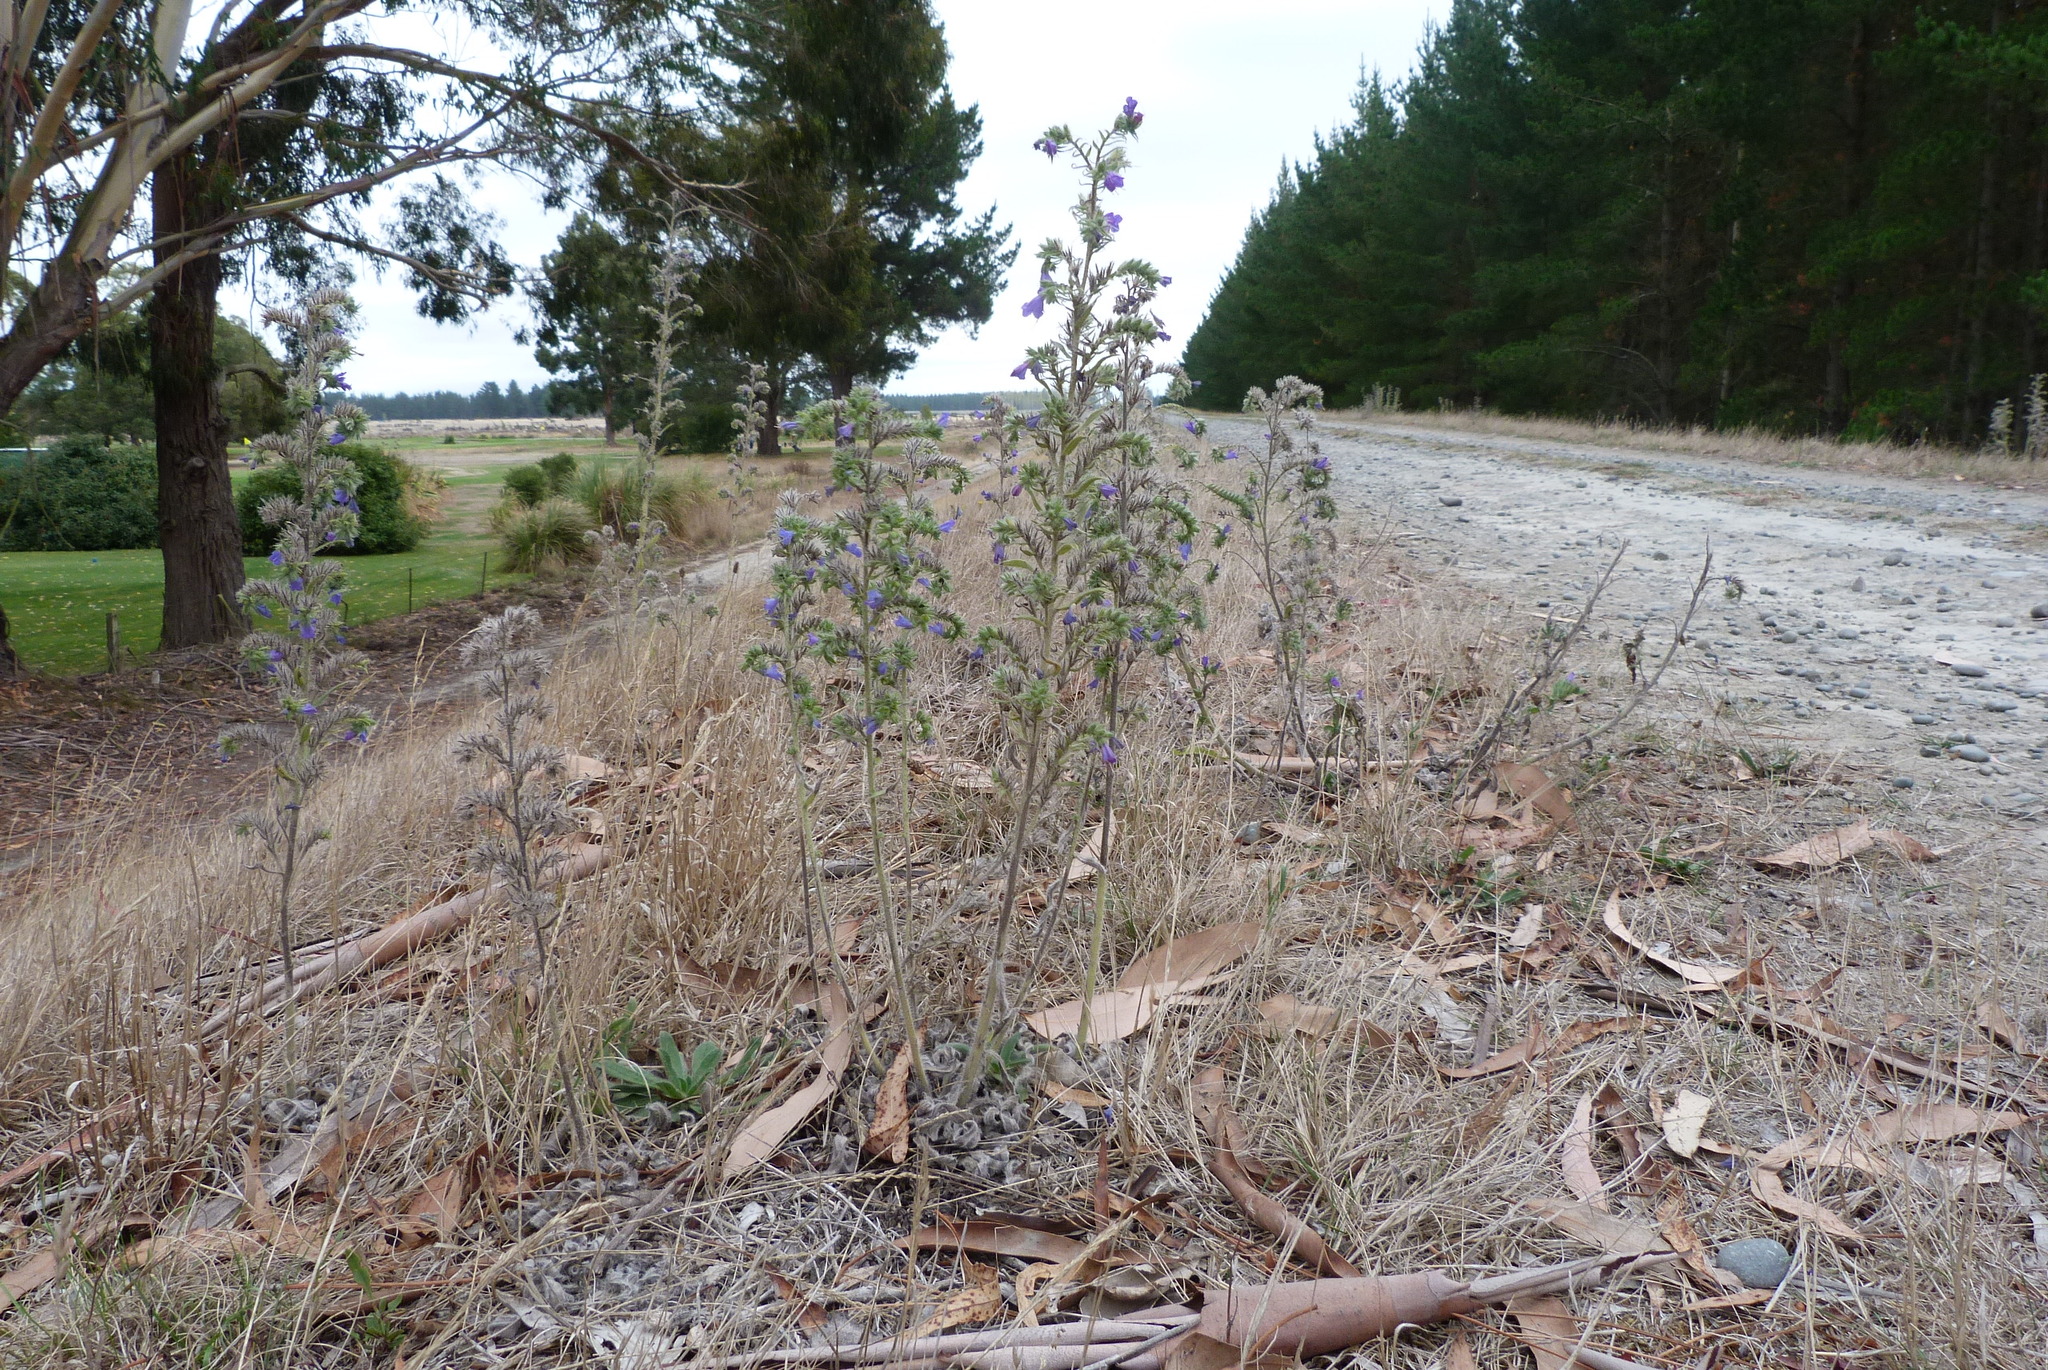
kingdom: Plantae
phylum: Tracheophyta
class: Magnoliopsida
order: Boraginales
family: Boraginaceae
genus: Echium
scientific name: Echium vulgare
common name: Common viper's bugloss
